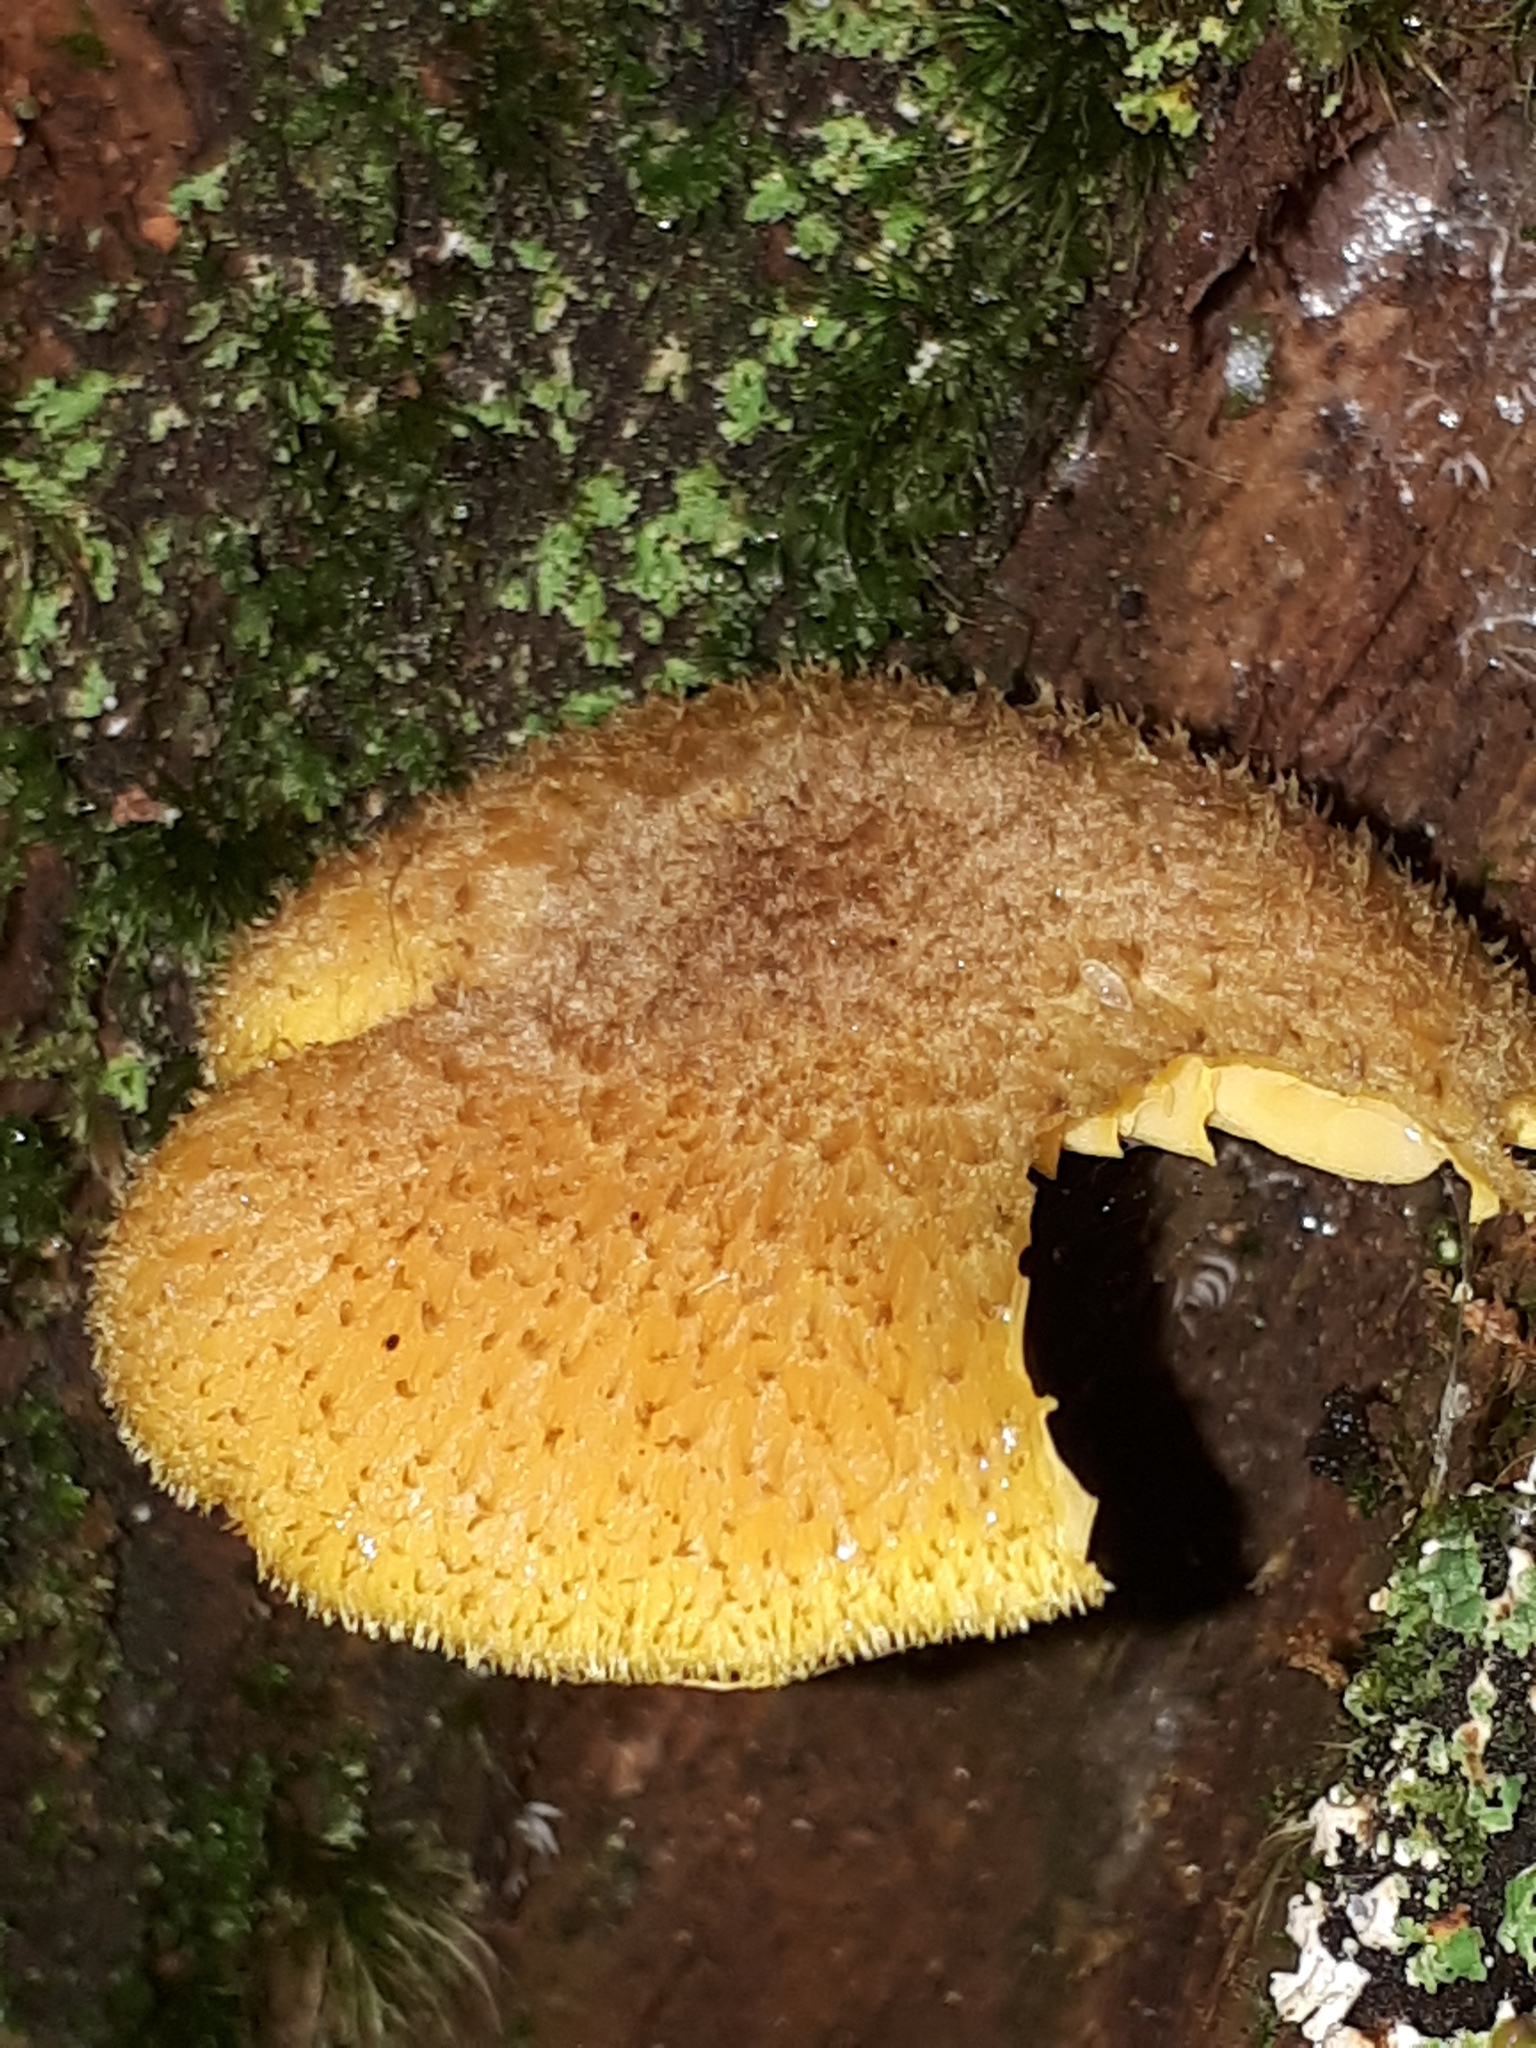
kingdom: Fungi
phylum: Basidiomycota
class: Agaricomycetes
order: Agaricales
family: Tricholomataceae
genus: Tricholomopsis
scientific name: Tricholomopsis decora
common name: Prunes and custard
